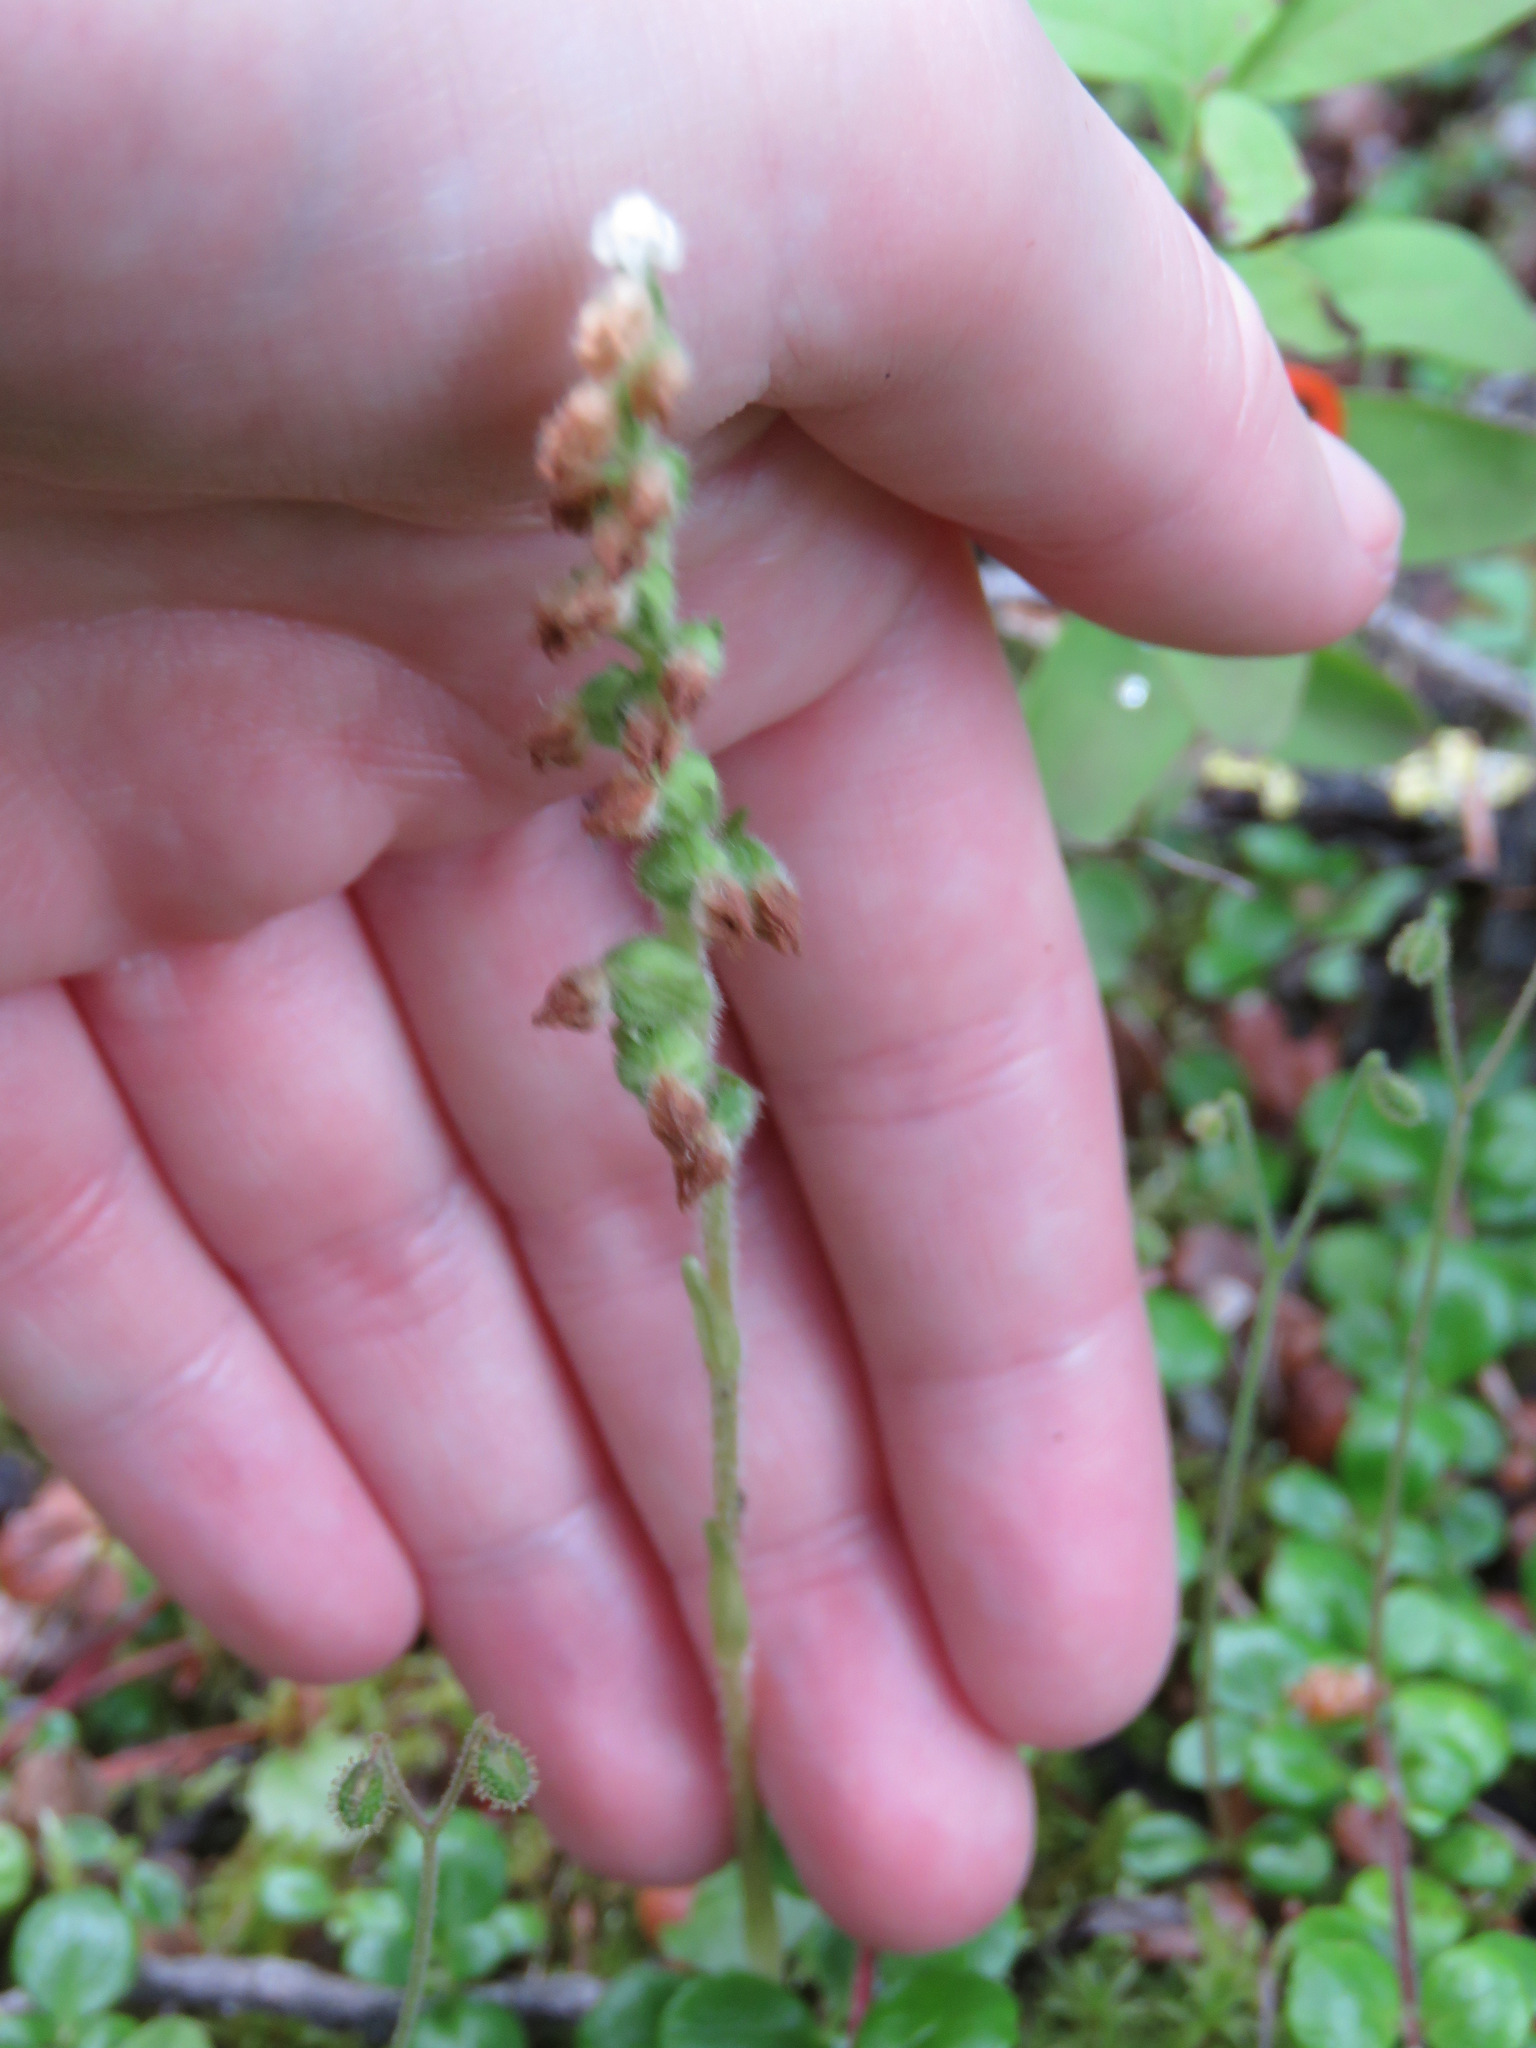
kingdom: Plantae
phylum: Tracheophyta
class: Liliopsida
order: Asparagales
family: Orchidaceae
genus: Goodyera
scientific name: Goodyera repens
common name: Creeping lady's-tresses
